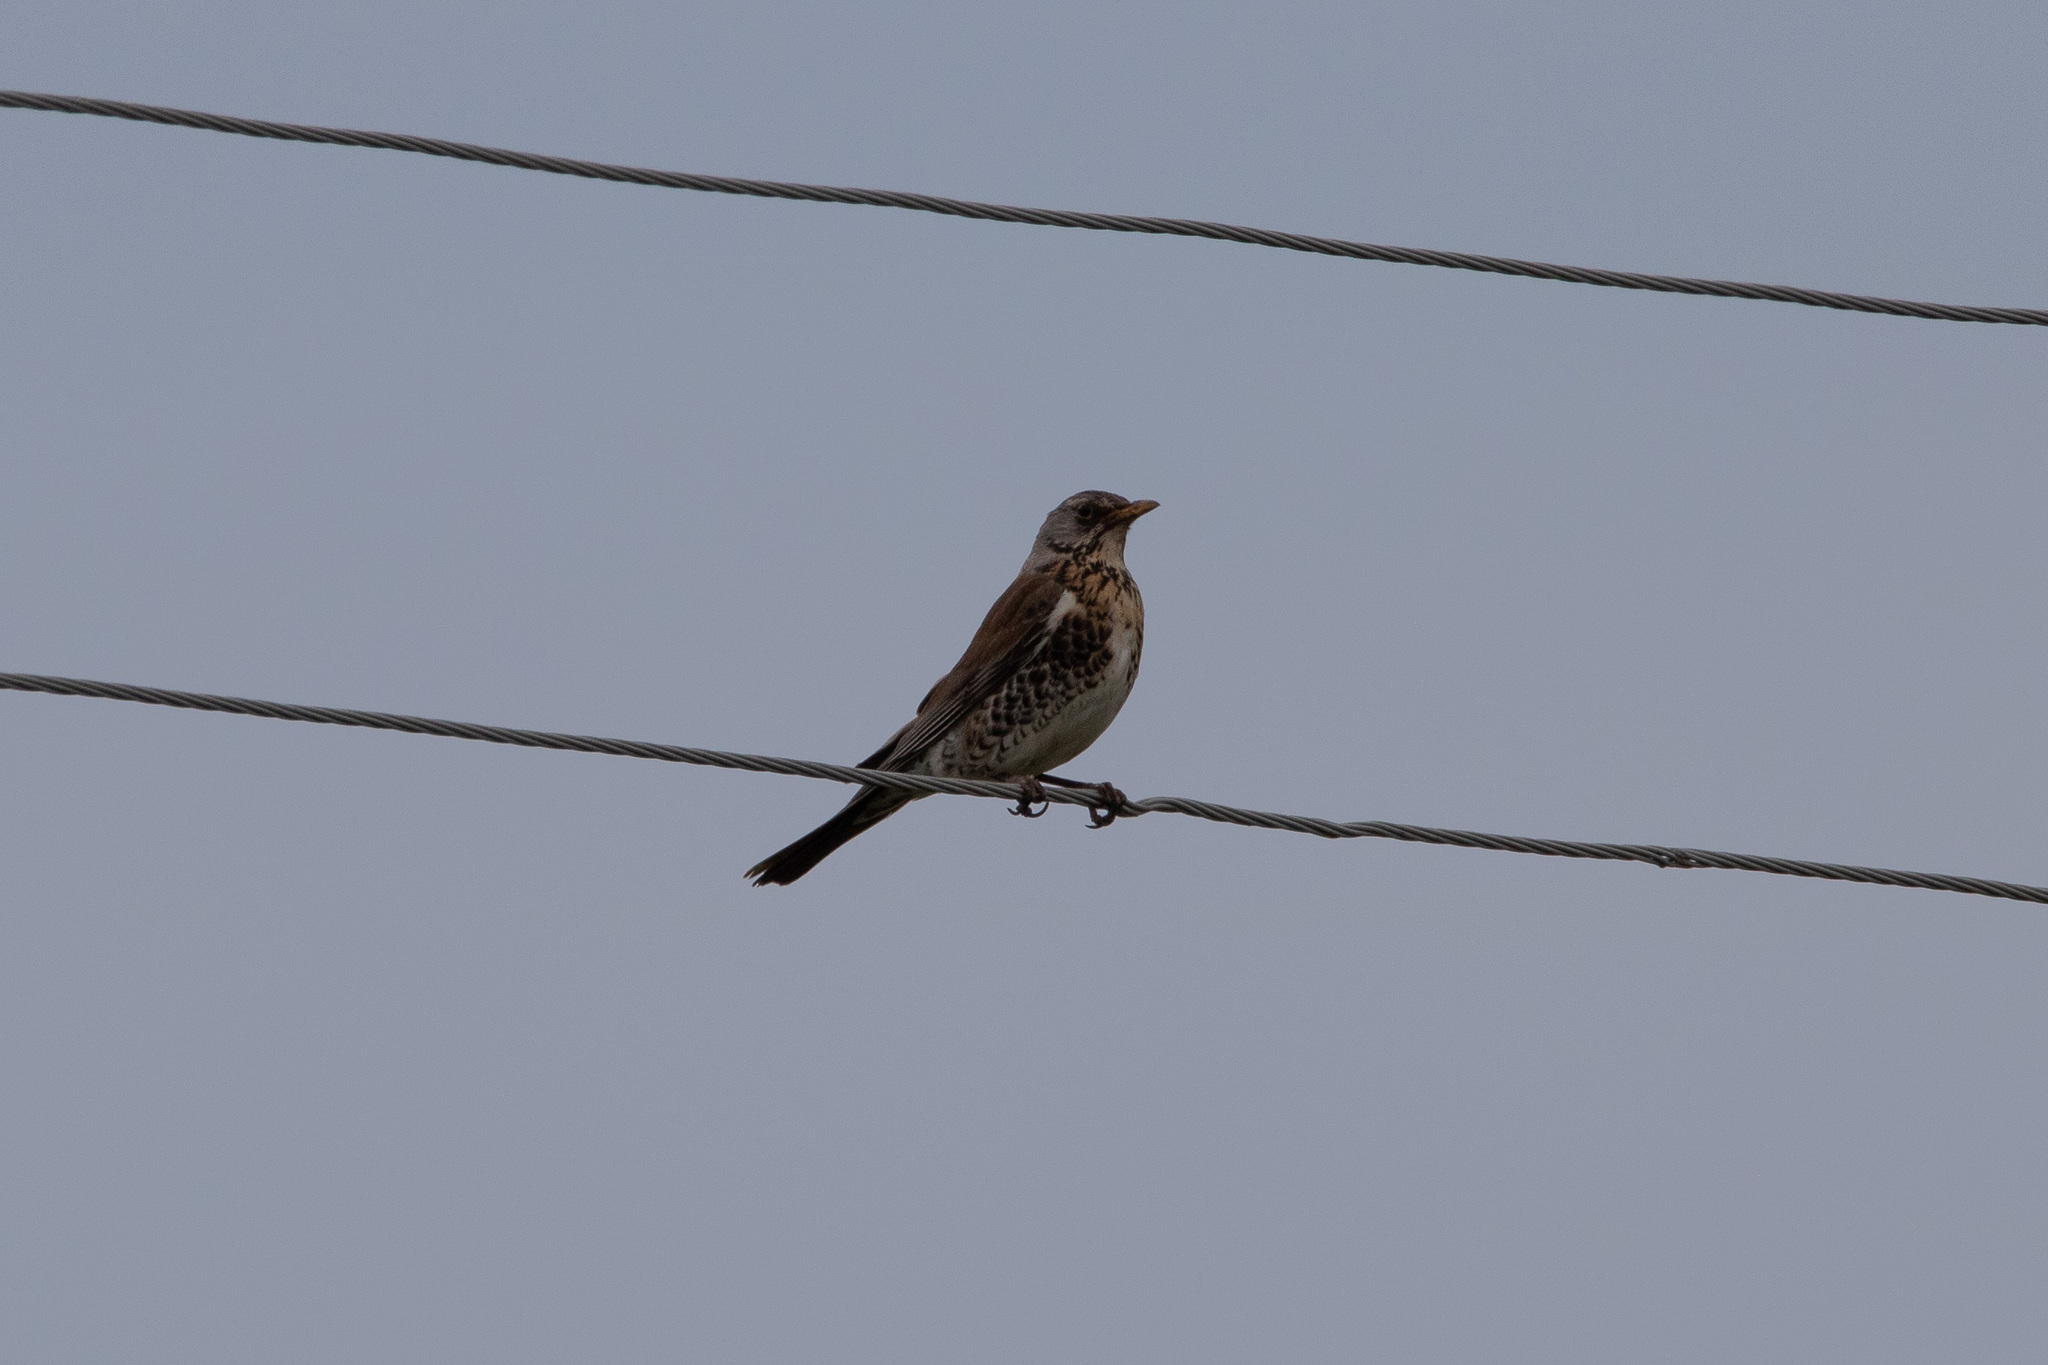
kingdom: Animalia
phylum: Chordata
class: Aves
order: Passeriformes
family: Turdidae
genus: Turdus
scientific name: Turdus pilaris
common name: Fieldfare
